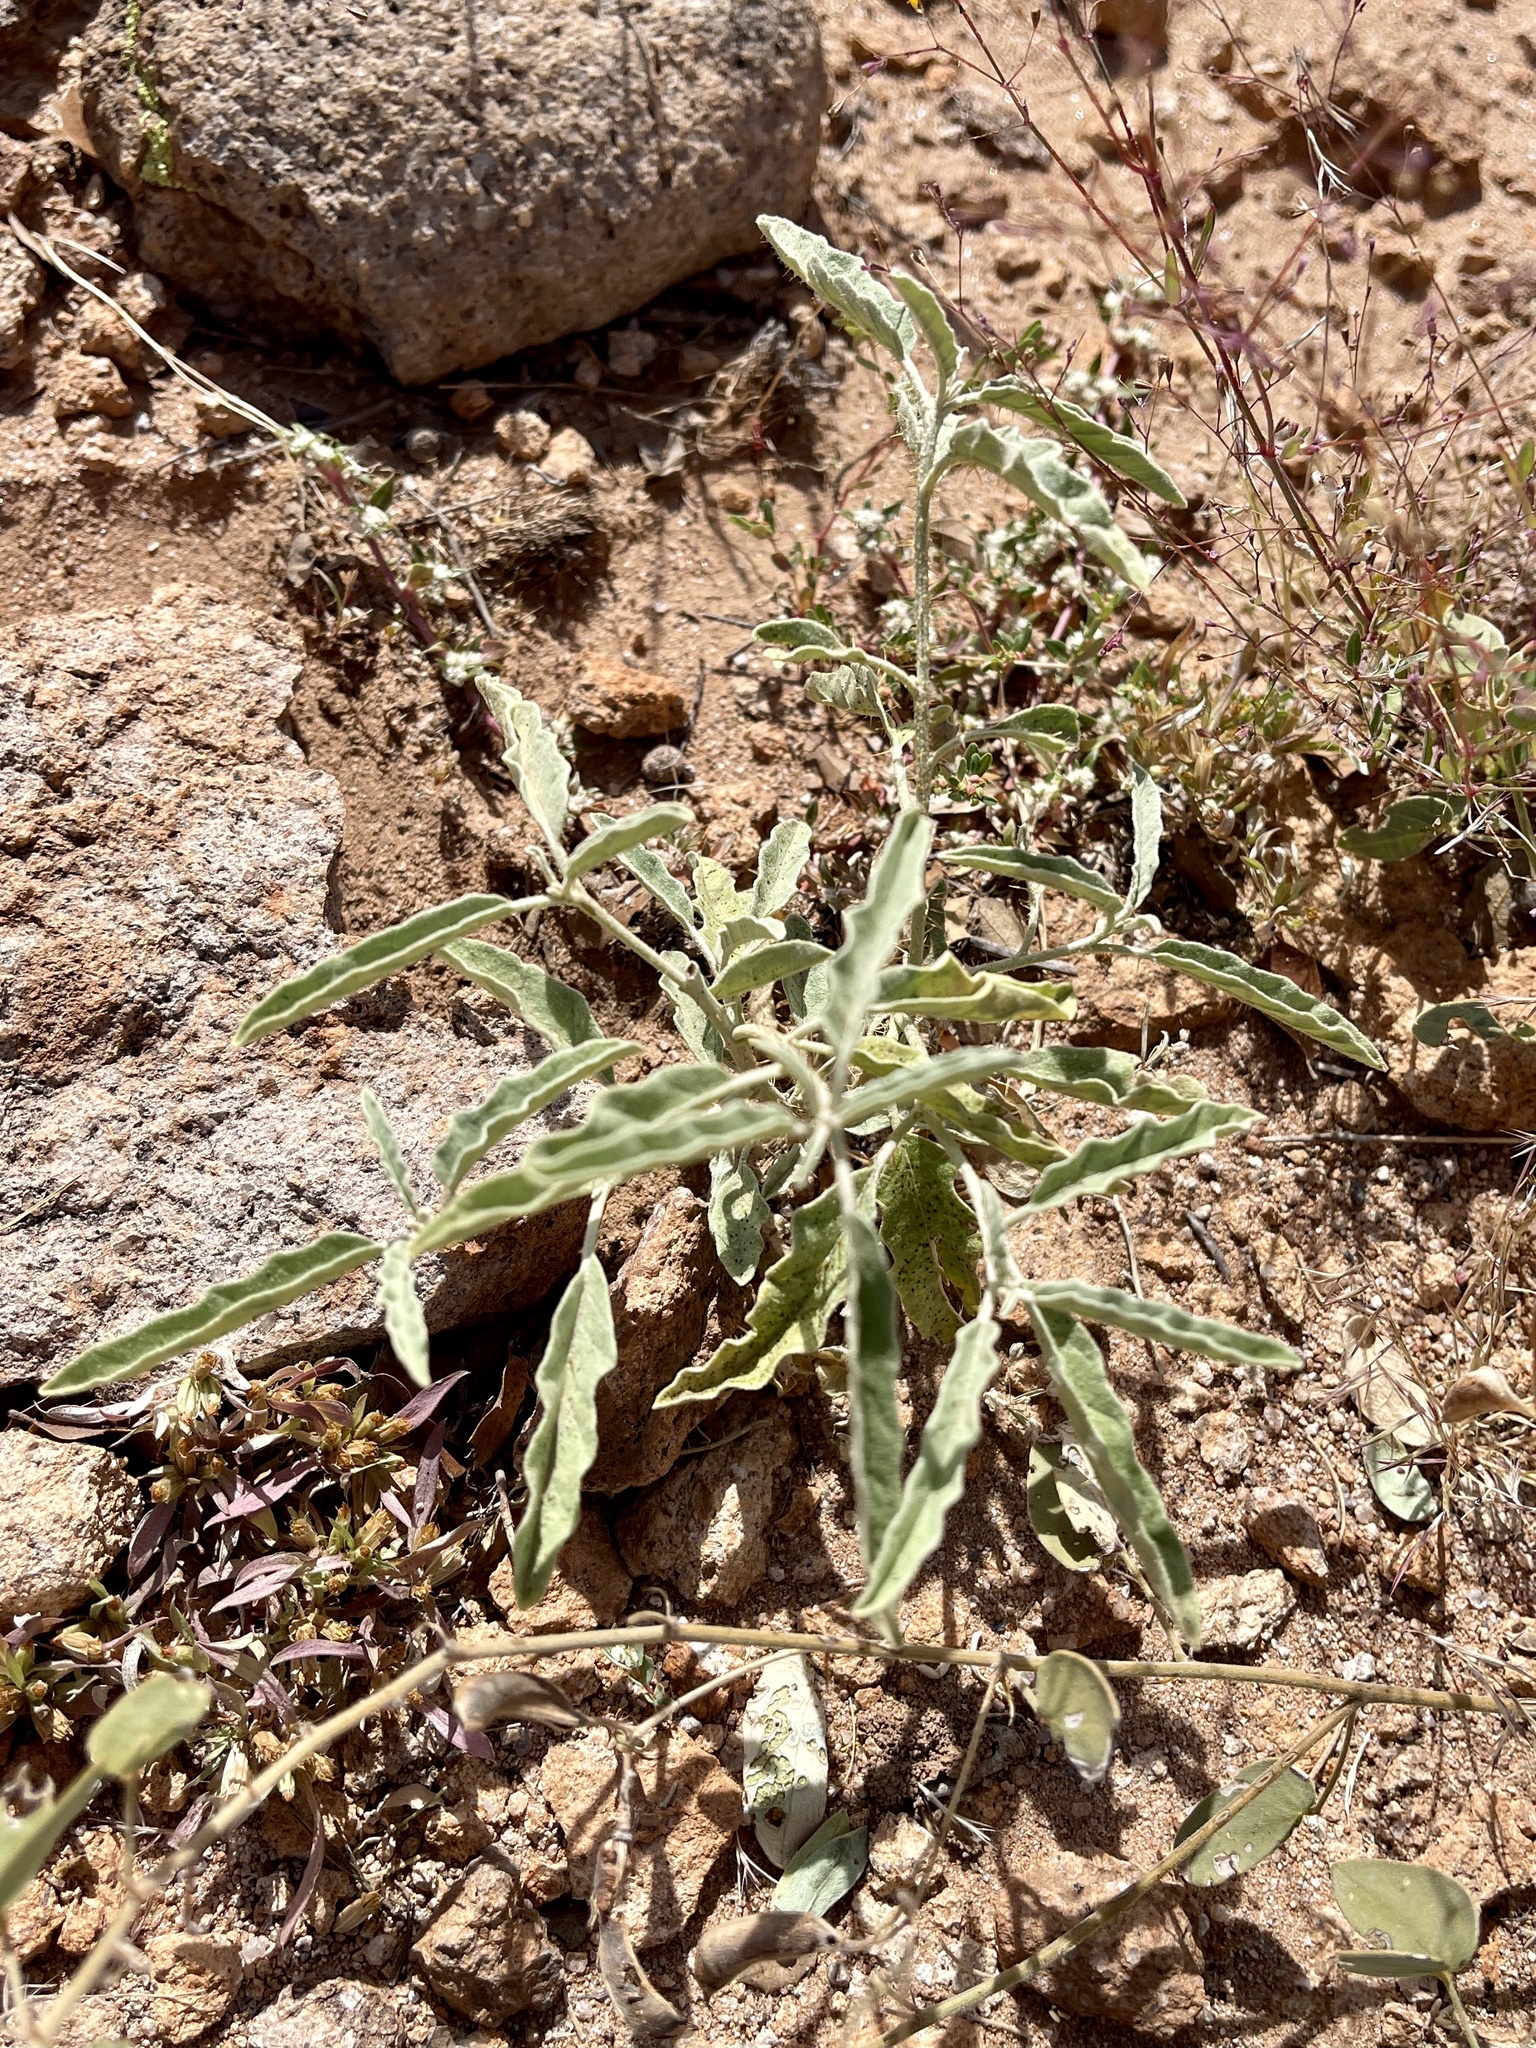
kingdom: Plantae
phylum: Tracheophyta
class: Magnoliopsida
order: Solanales
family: Solanaceae
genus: Solanum
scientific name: Solanum elaeagnifolium
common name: Silverleaf nightshade
